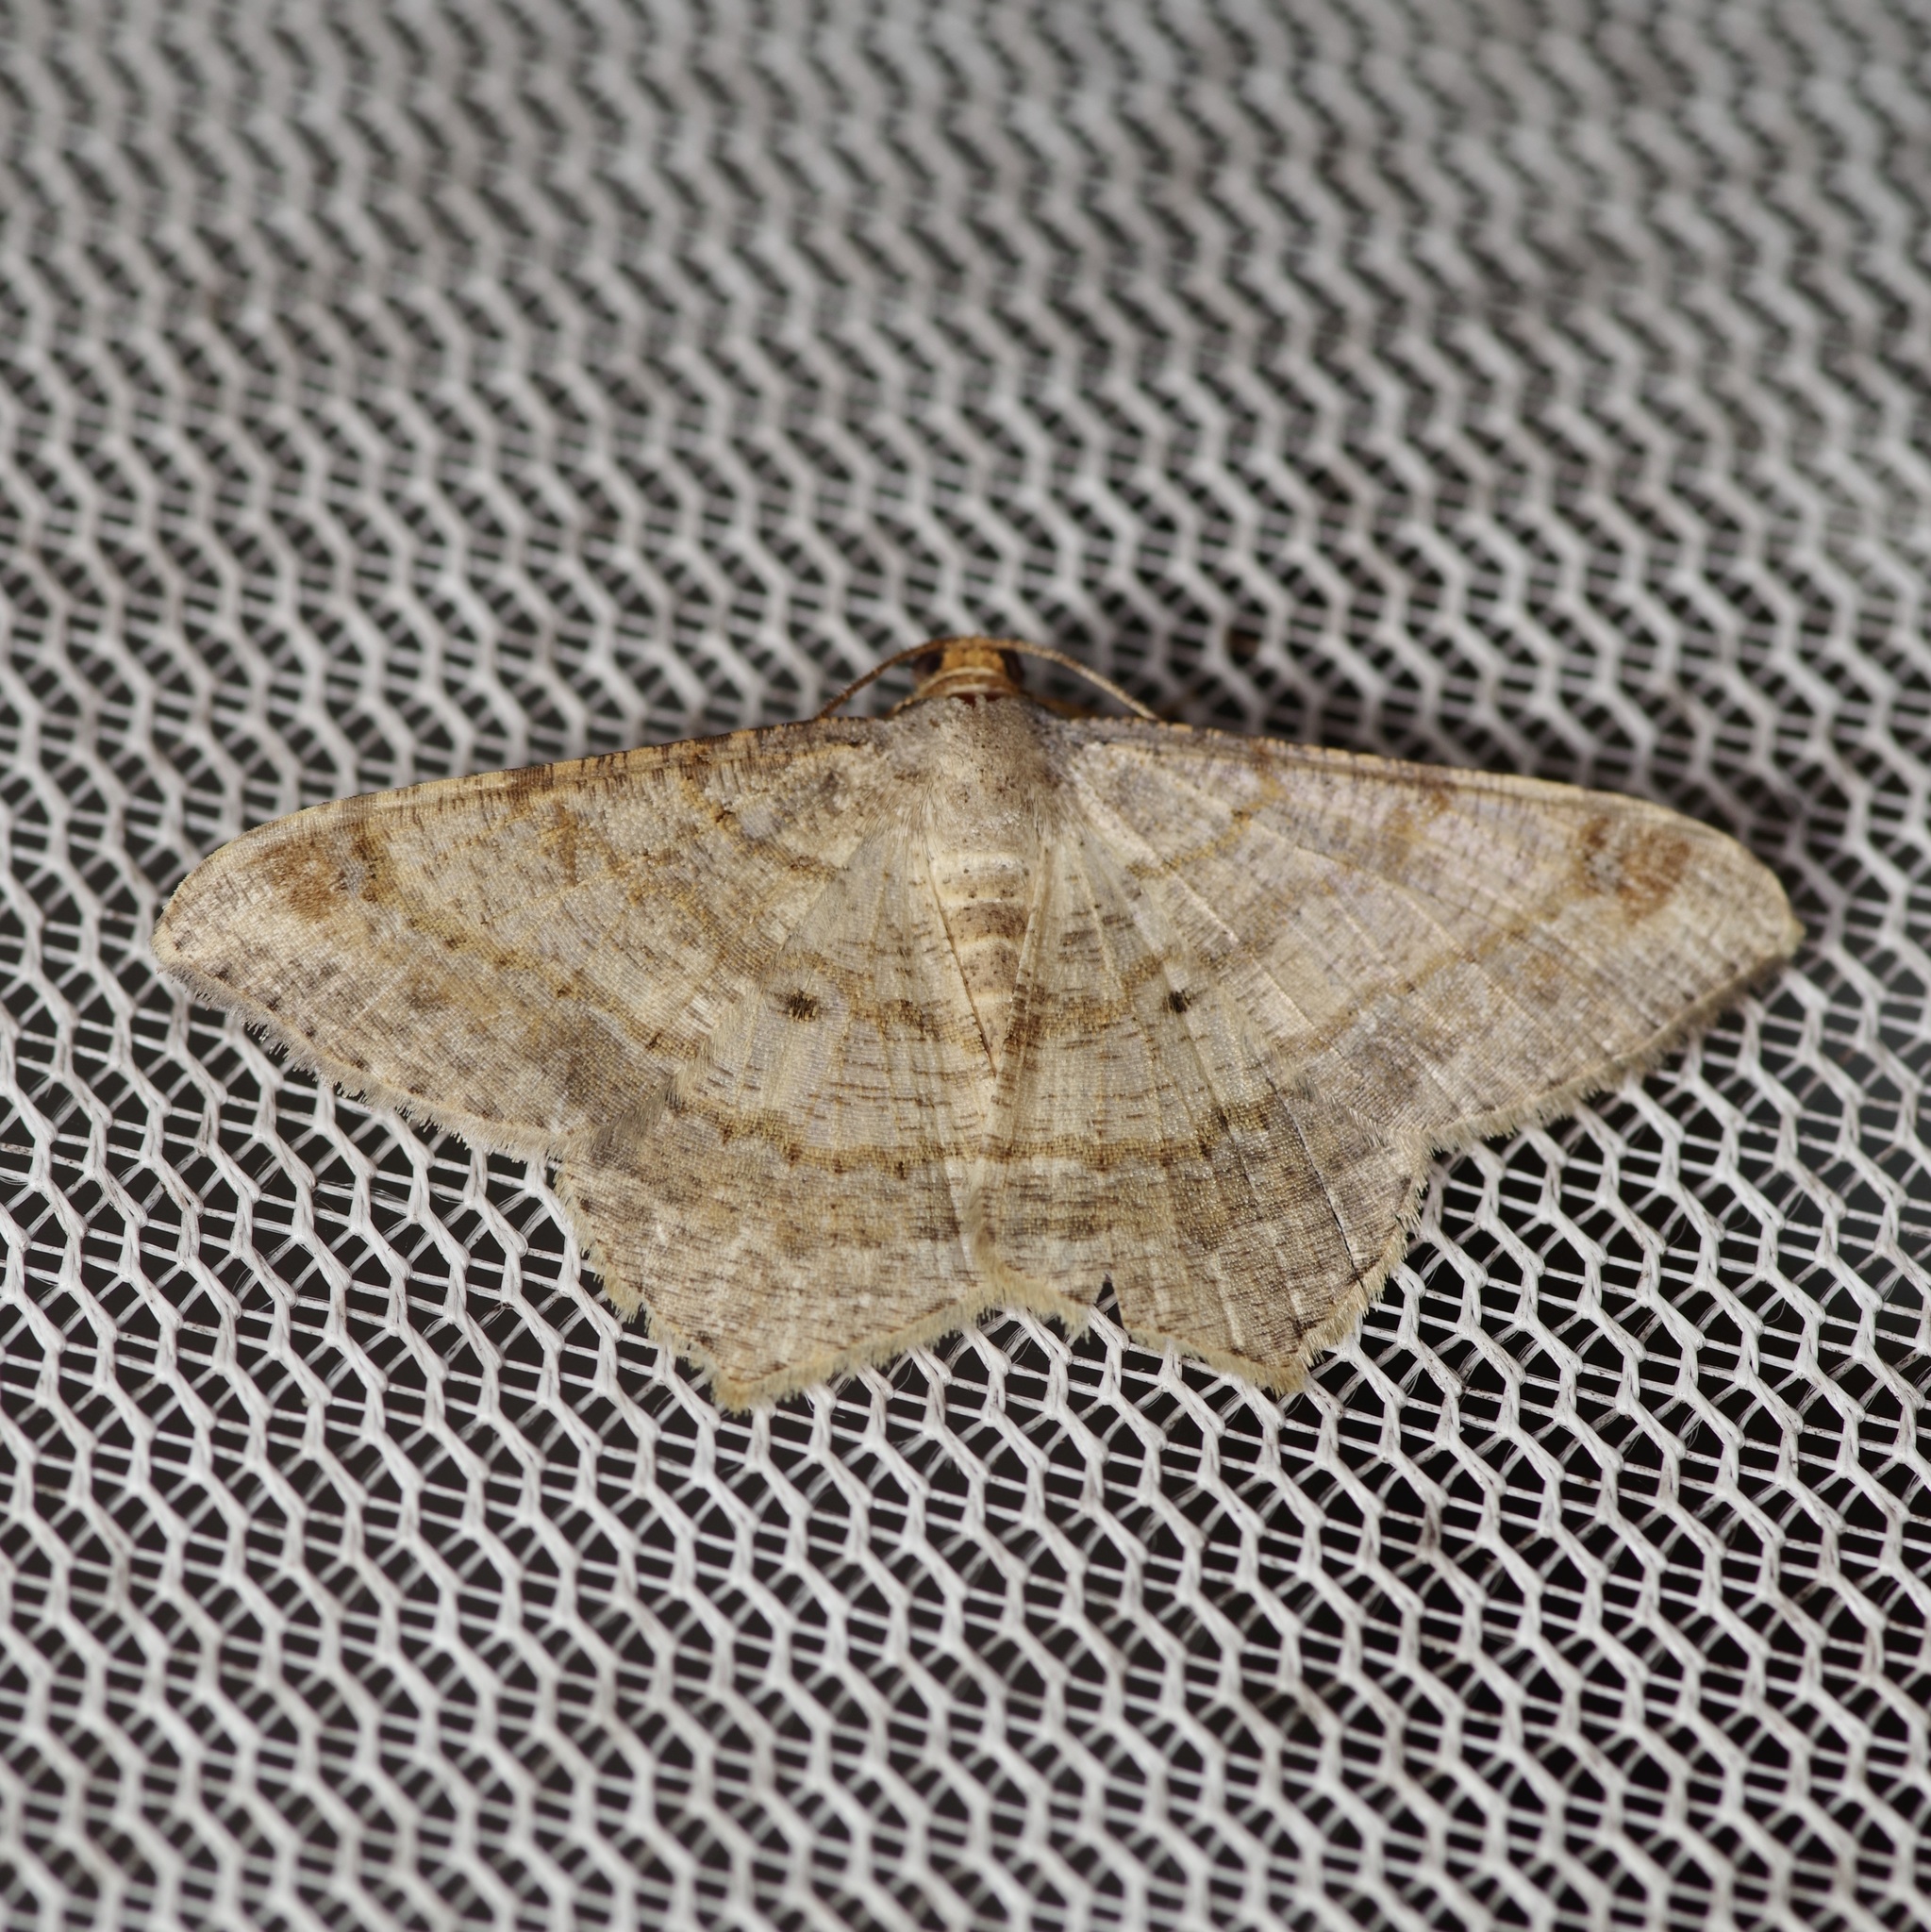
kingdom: Animalia
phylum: Arthropoda
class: Insecta
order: Lepidoptera
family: Geometridae
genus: Macaria
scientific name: Macaria abydata
